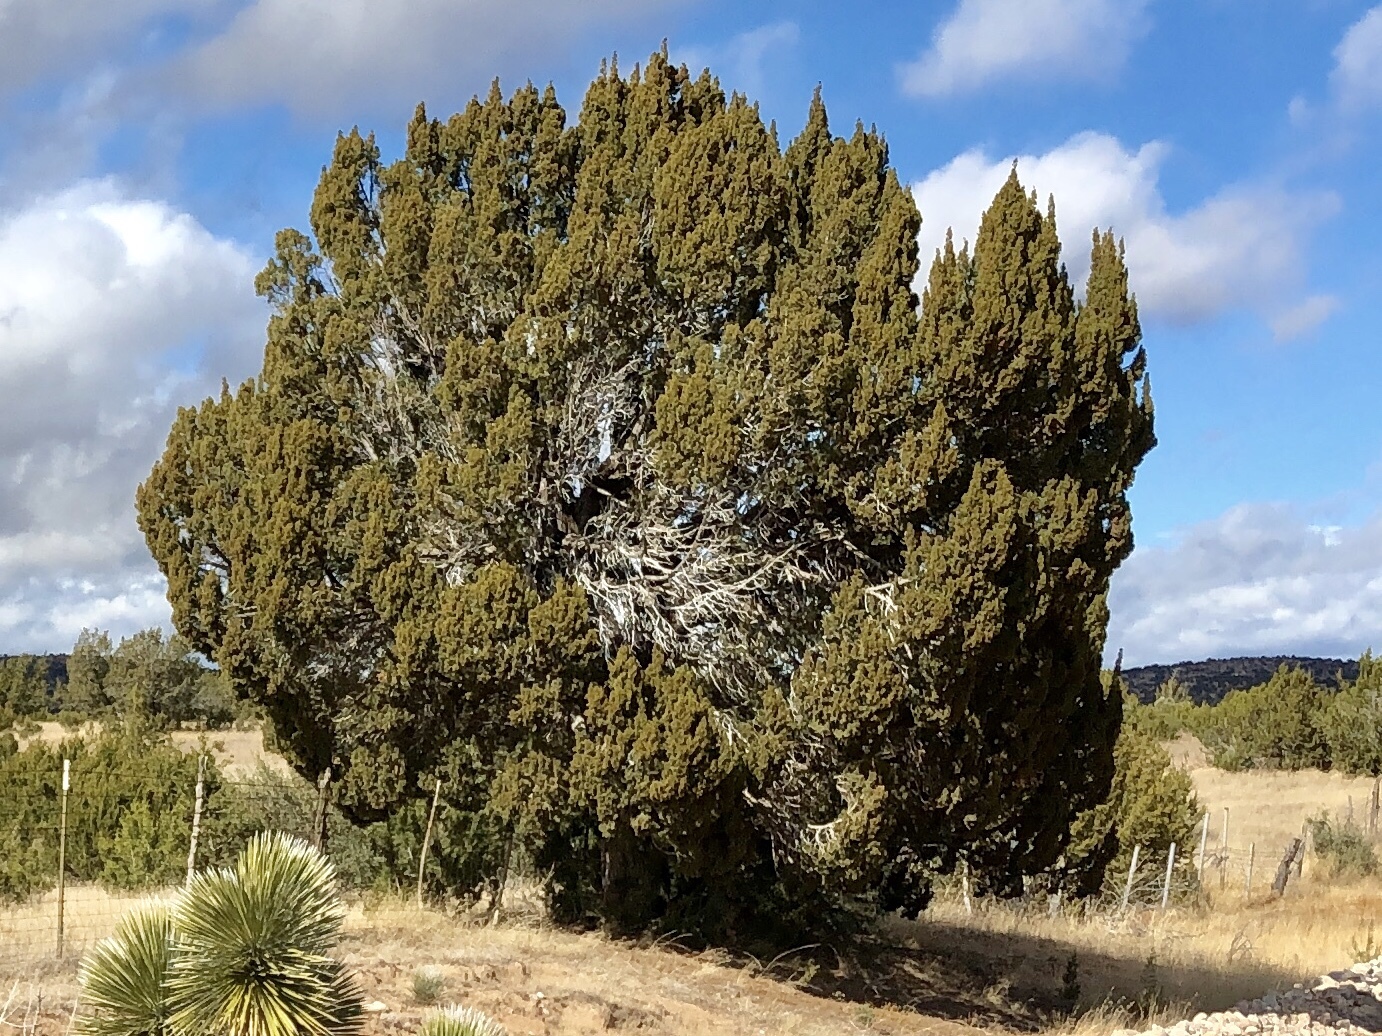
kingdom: Plantae
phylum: Tracheophyta
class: Pinopsida
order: Pinales
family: Cupressaceae
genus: Juniperus
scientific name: Juniperus monosperma
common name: One-seed juniper
